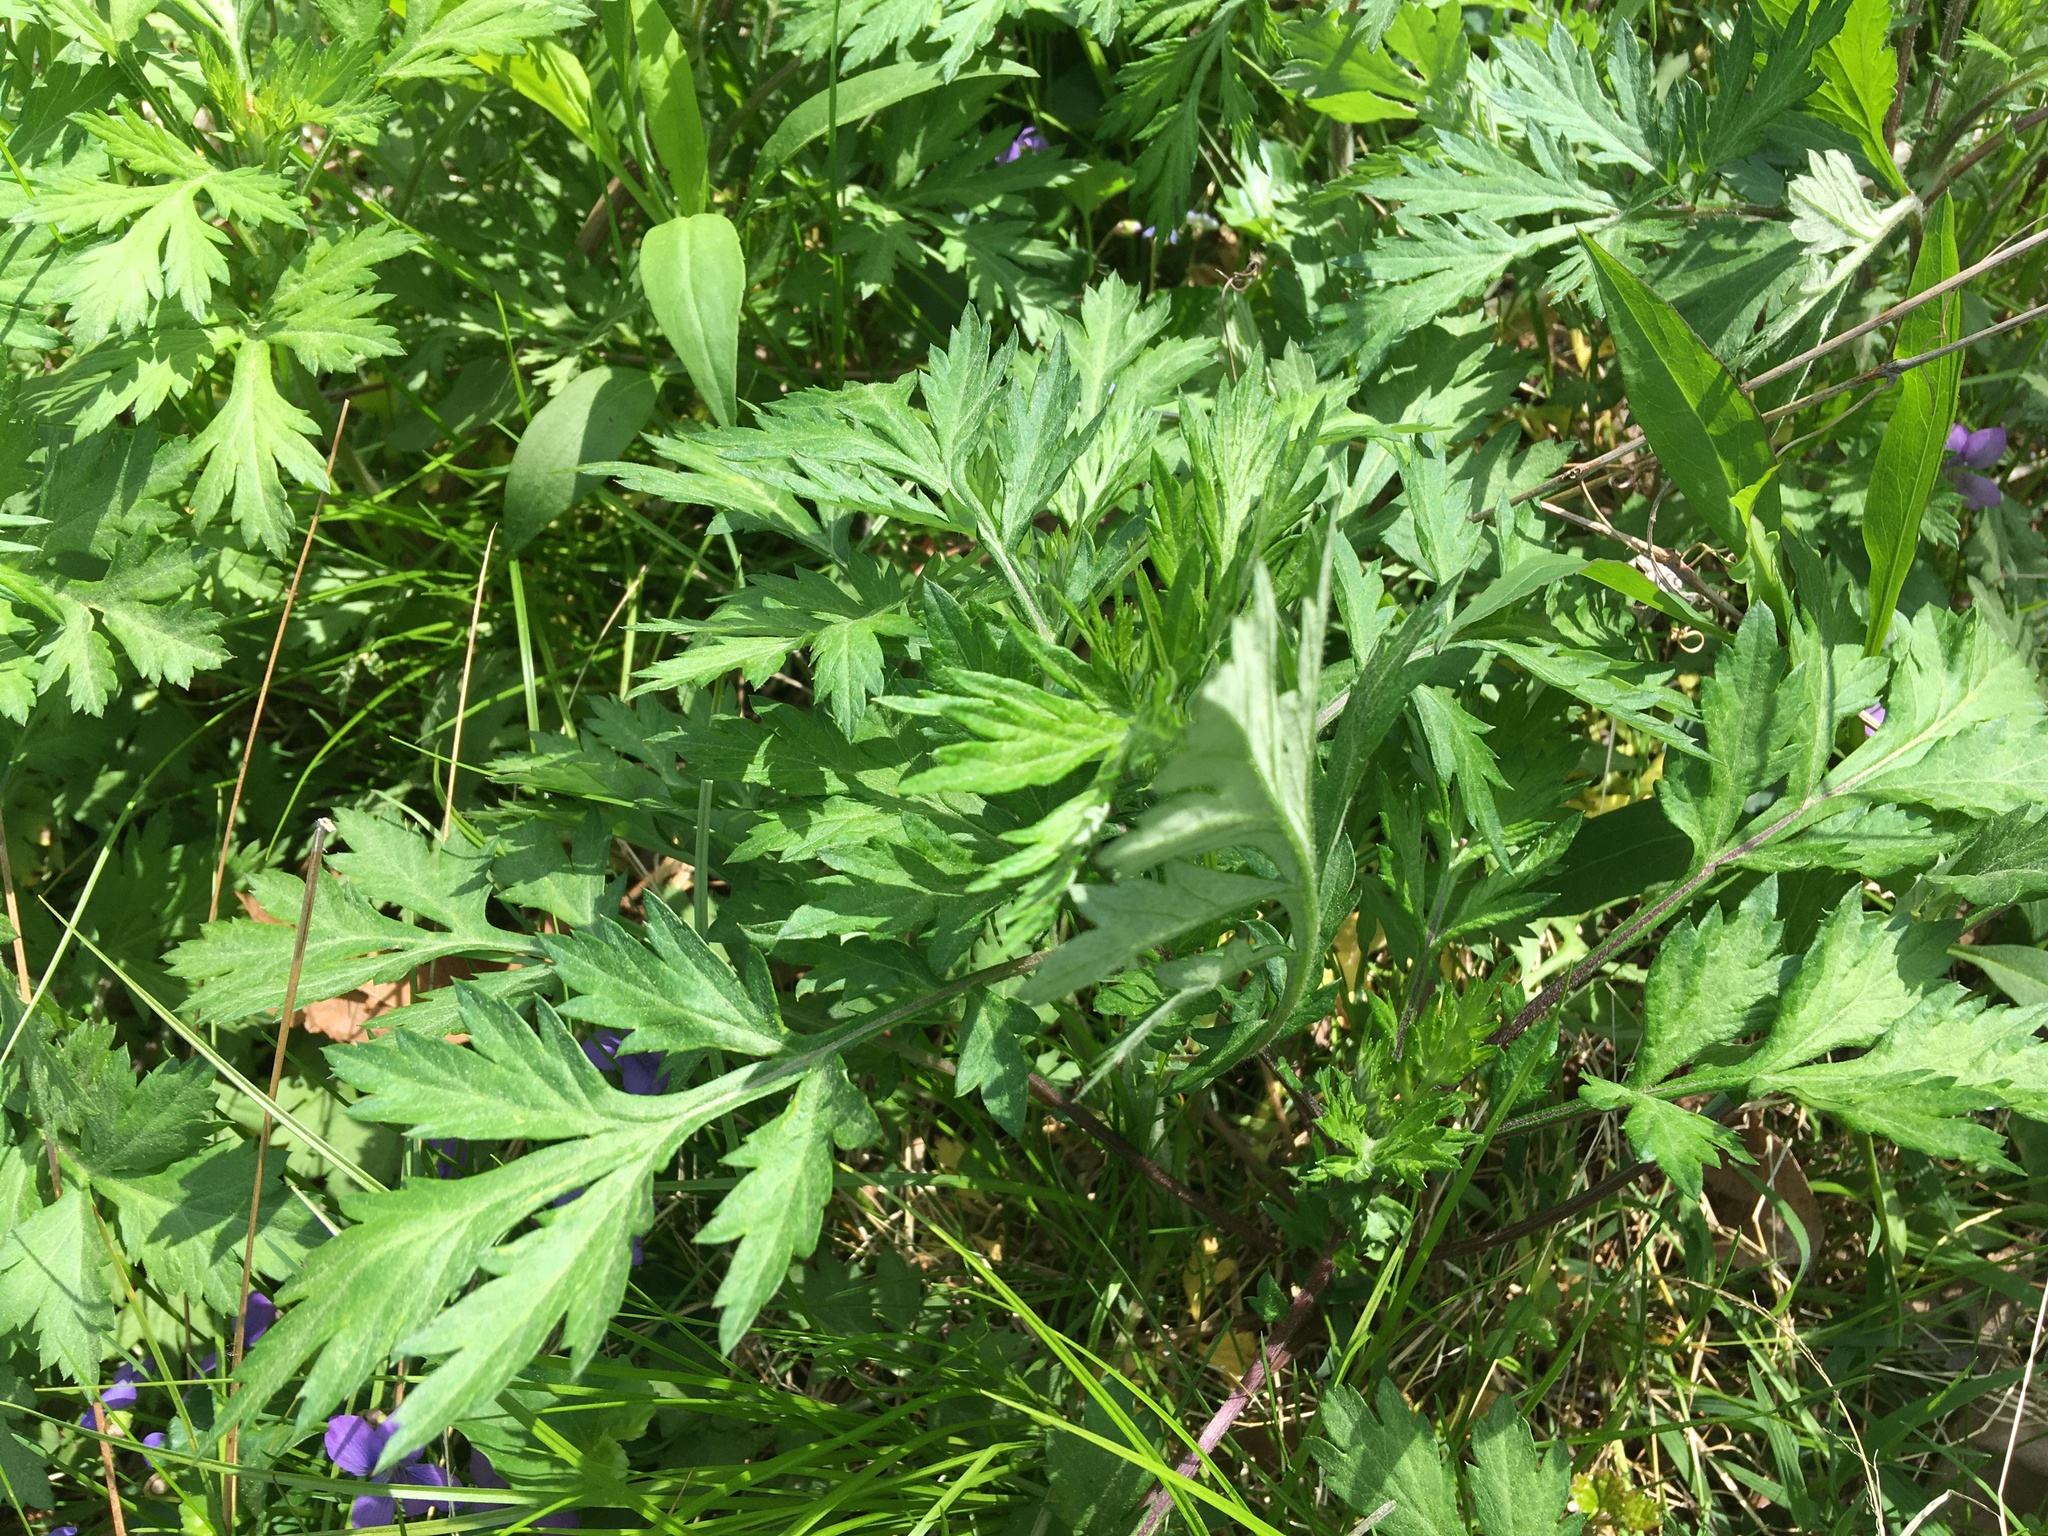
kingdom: Plantae
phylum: Tracheophyta
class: Magnoliopsida
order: Asterales
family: Asteraceae
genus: Artemisia
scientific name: Artemisia vulgaris
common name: Mugwort
